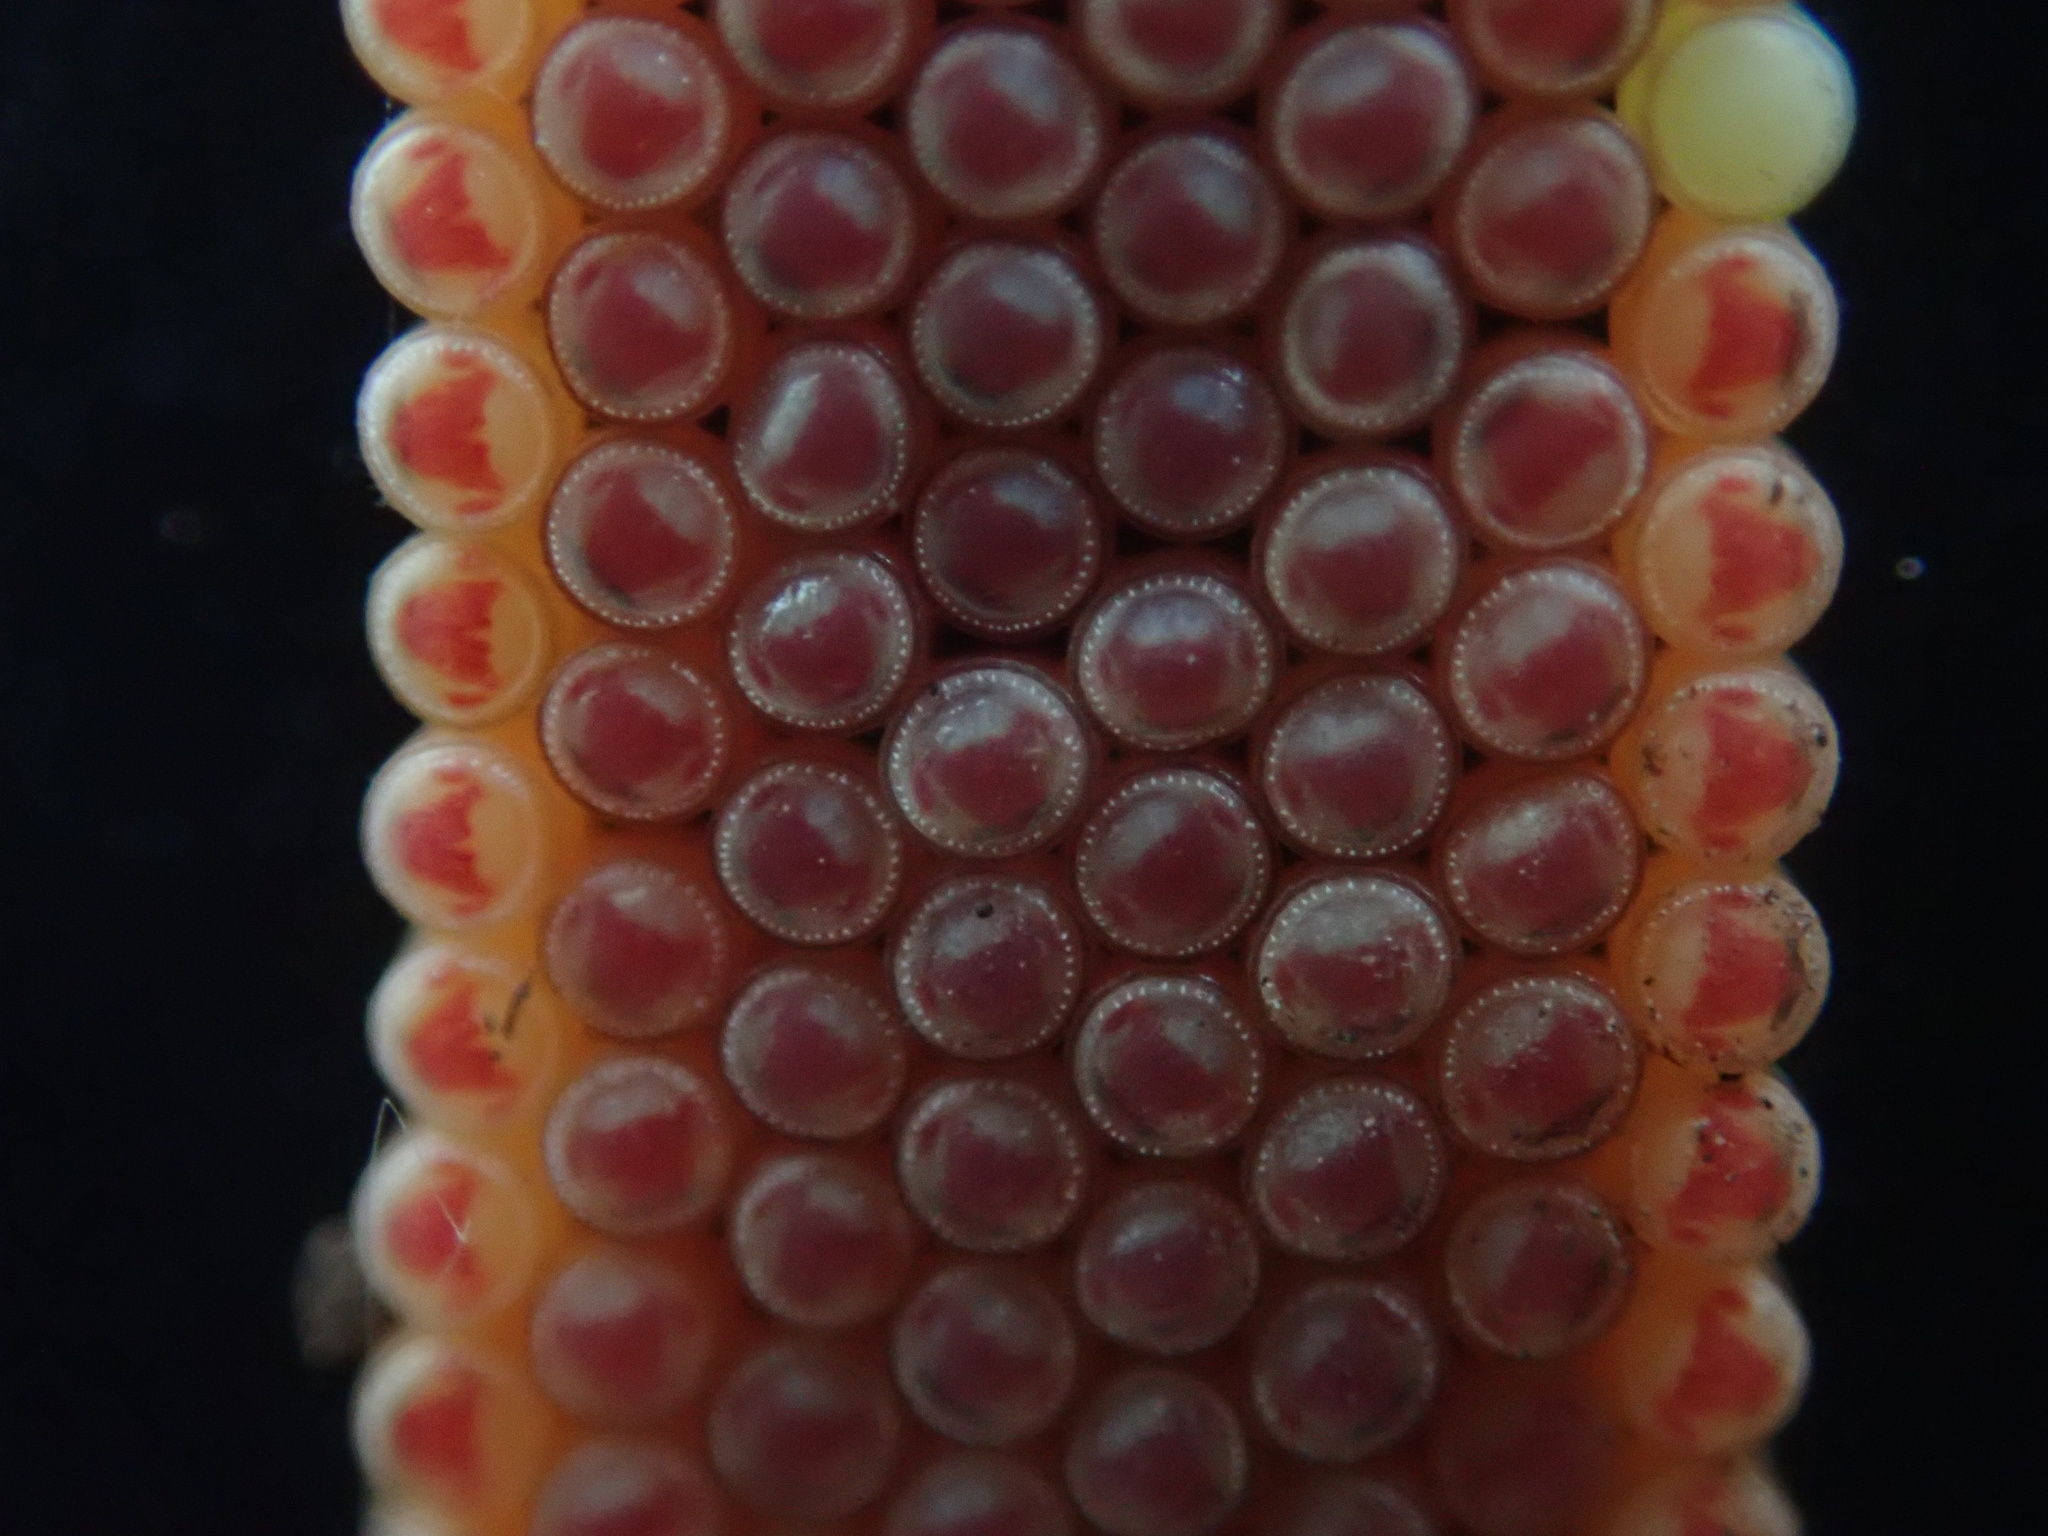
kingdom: Animalia
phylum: Arthropoda
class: Insecta
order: Hemiptera
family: Pentatomidae
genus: Nezara
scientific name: Nezara viridula
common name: Southern green stink bug
